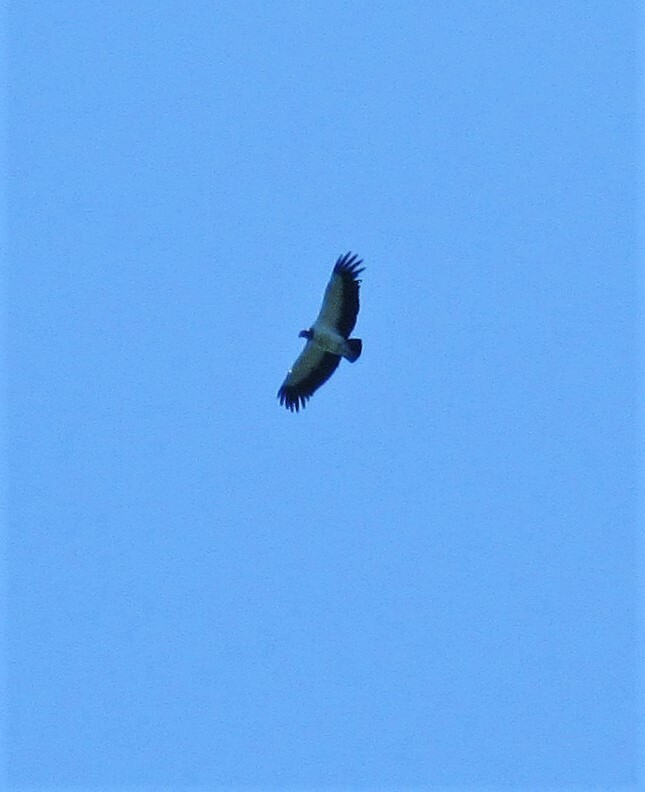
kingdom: Animalia
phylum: Chordata
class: Aves
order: Accipitriformes
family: Cathartidae
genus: Sarcoramphus
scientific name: Sarcoramphus papa
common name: King vulture
